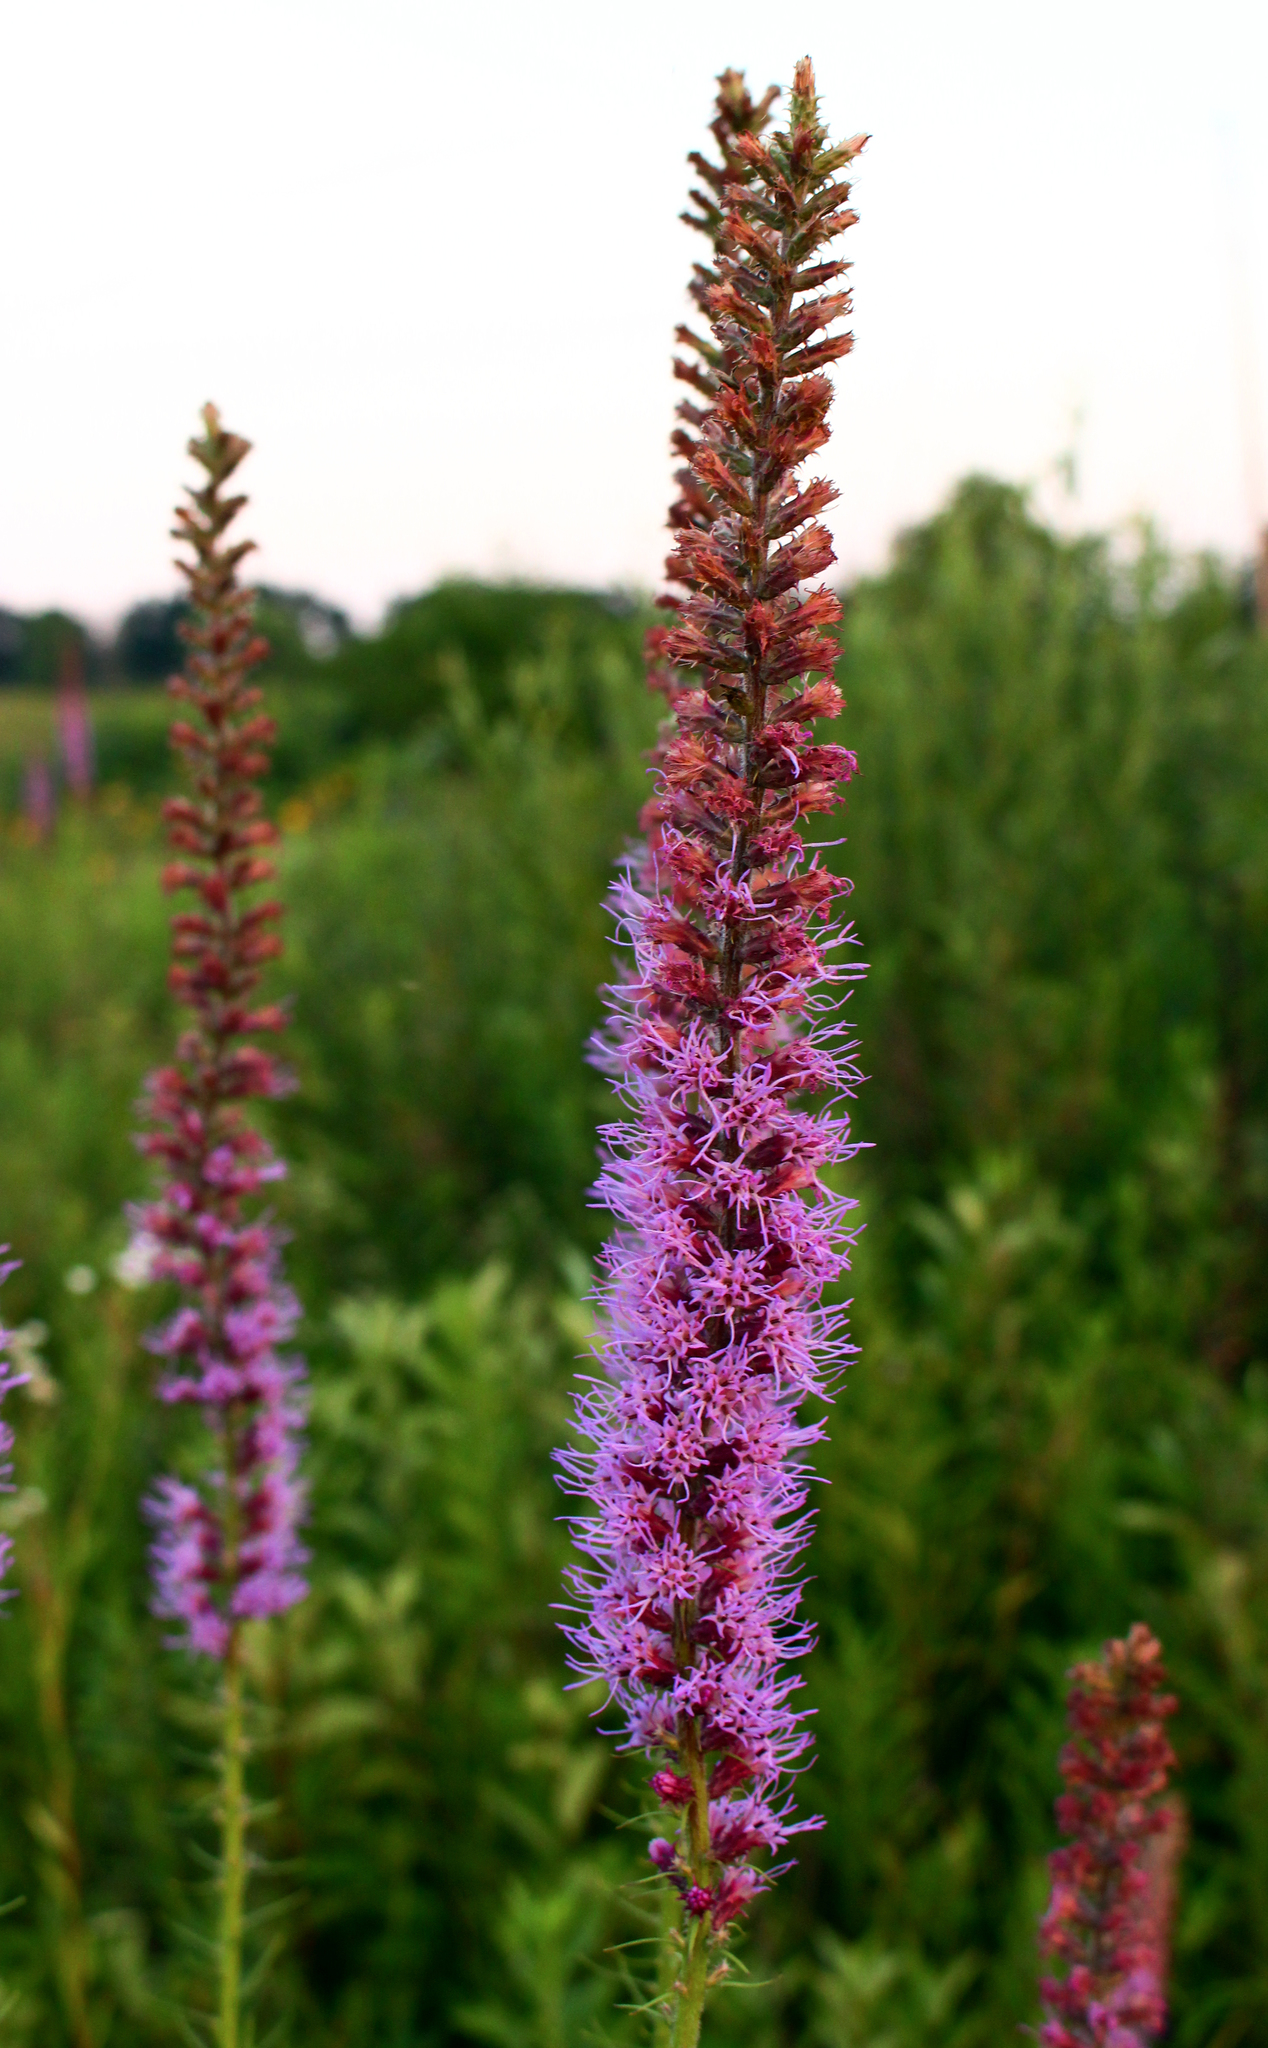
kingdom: Plantae
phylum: Tracheophyta
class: Magnoliopsida
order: Asterales
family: Asteraceae
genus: Liatris
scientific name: Liatris pycnostachya
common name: Cattail gayfeather
